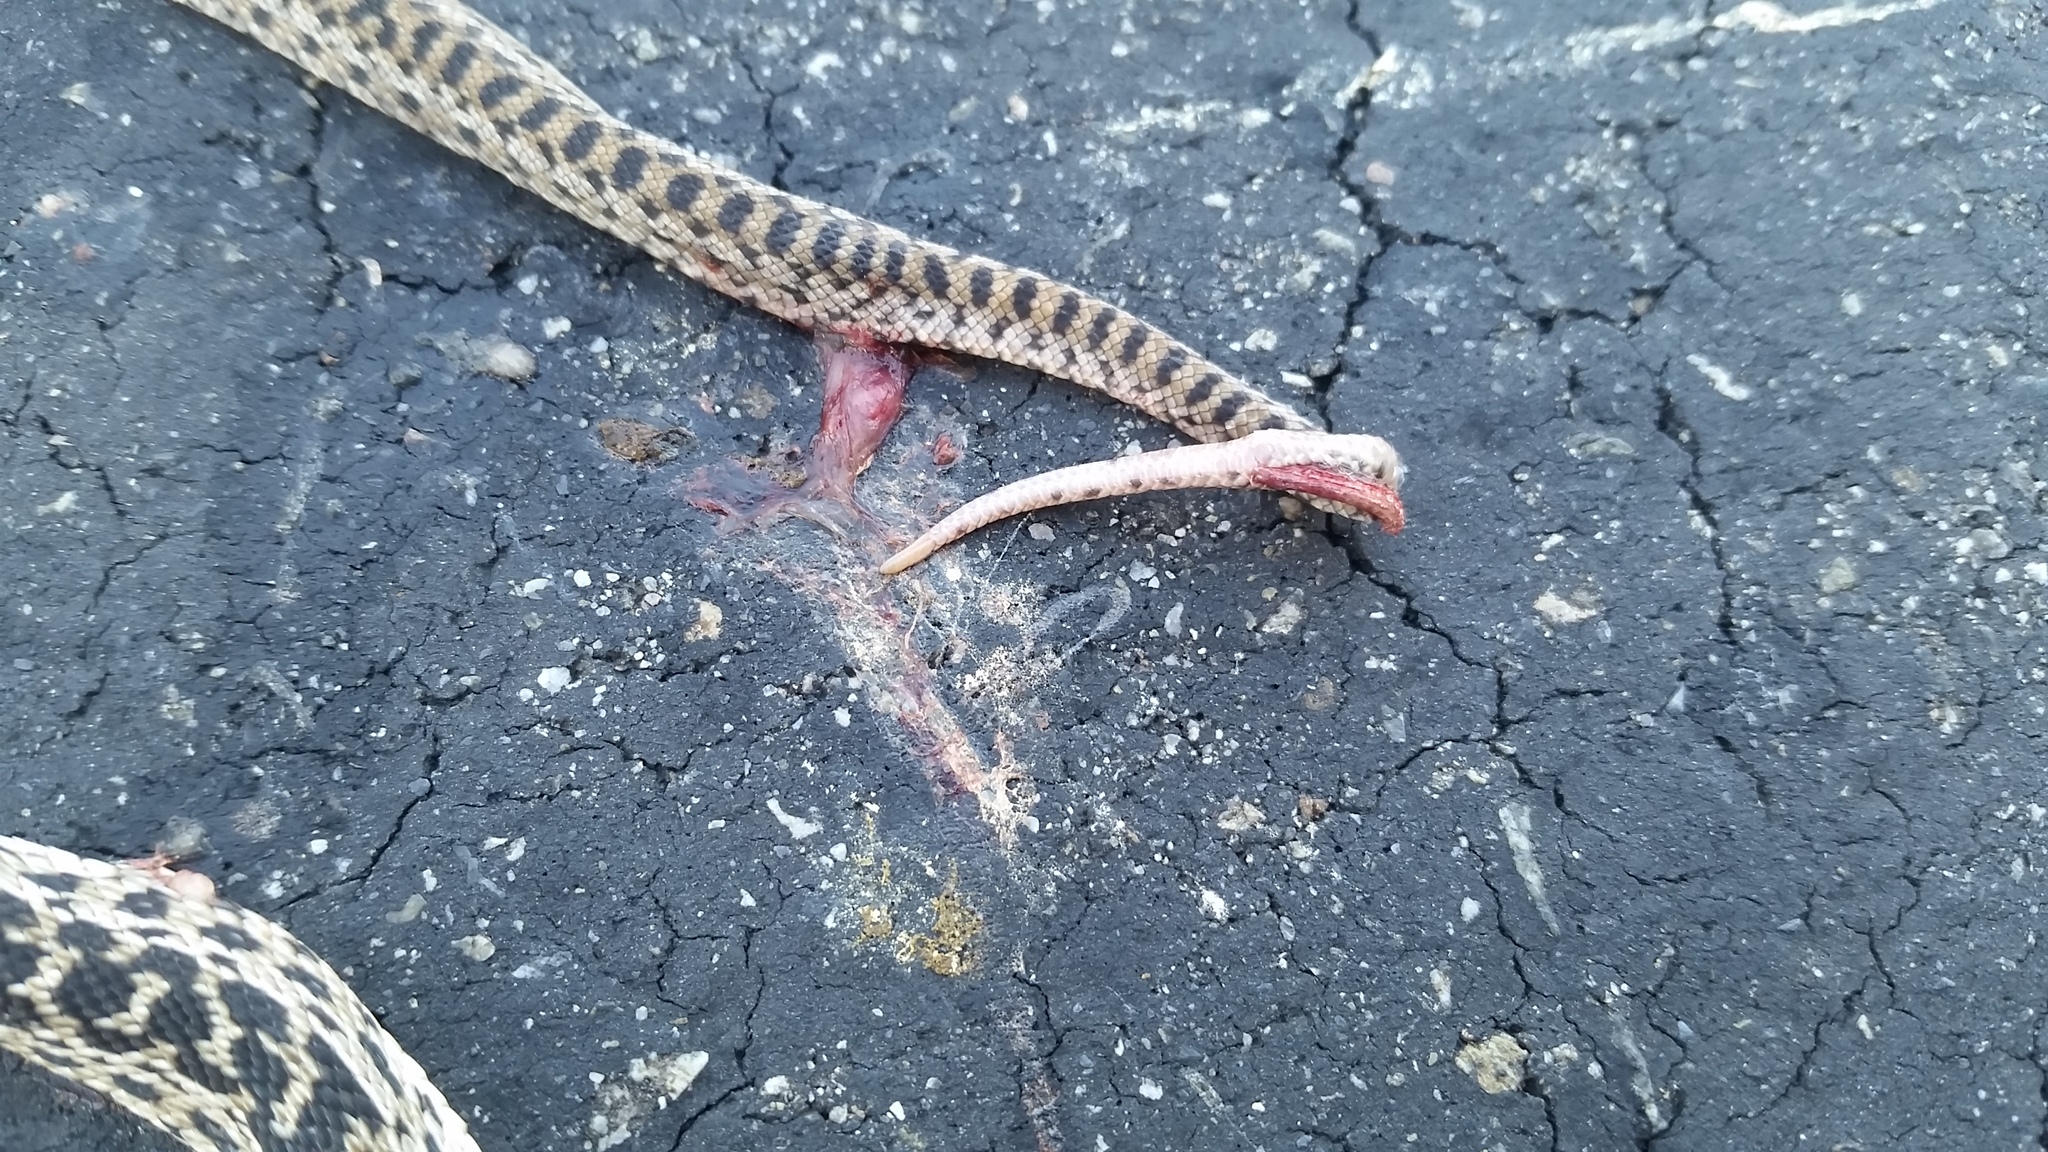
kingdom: Animalia
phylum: Chordata
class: Squamata
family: Colubridae
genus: Pituophis
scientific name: Pituophis catenifer
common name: Gopher snake
